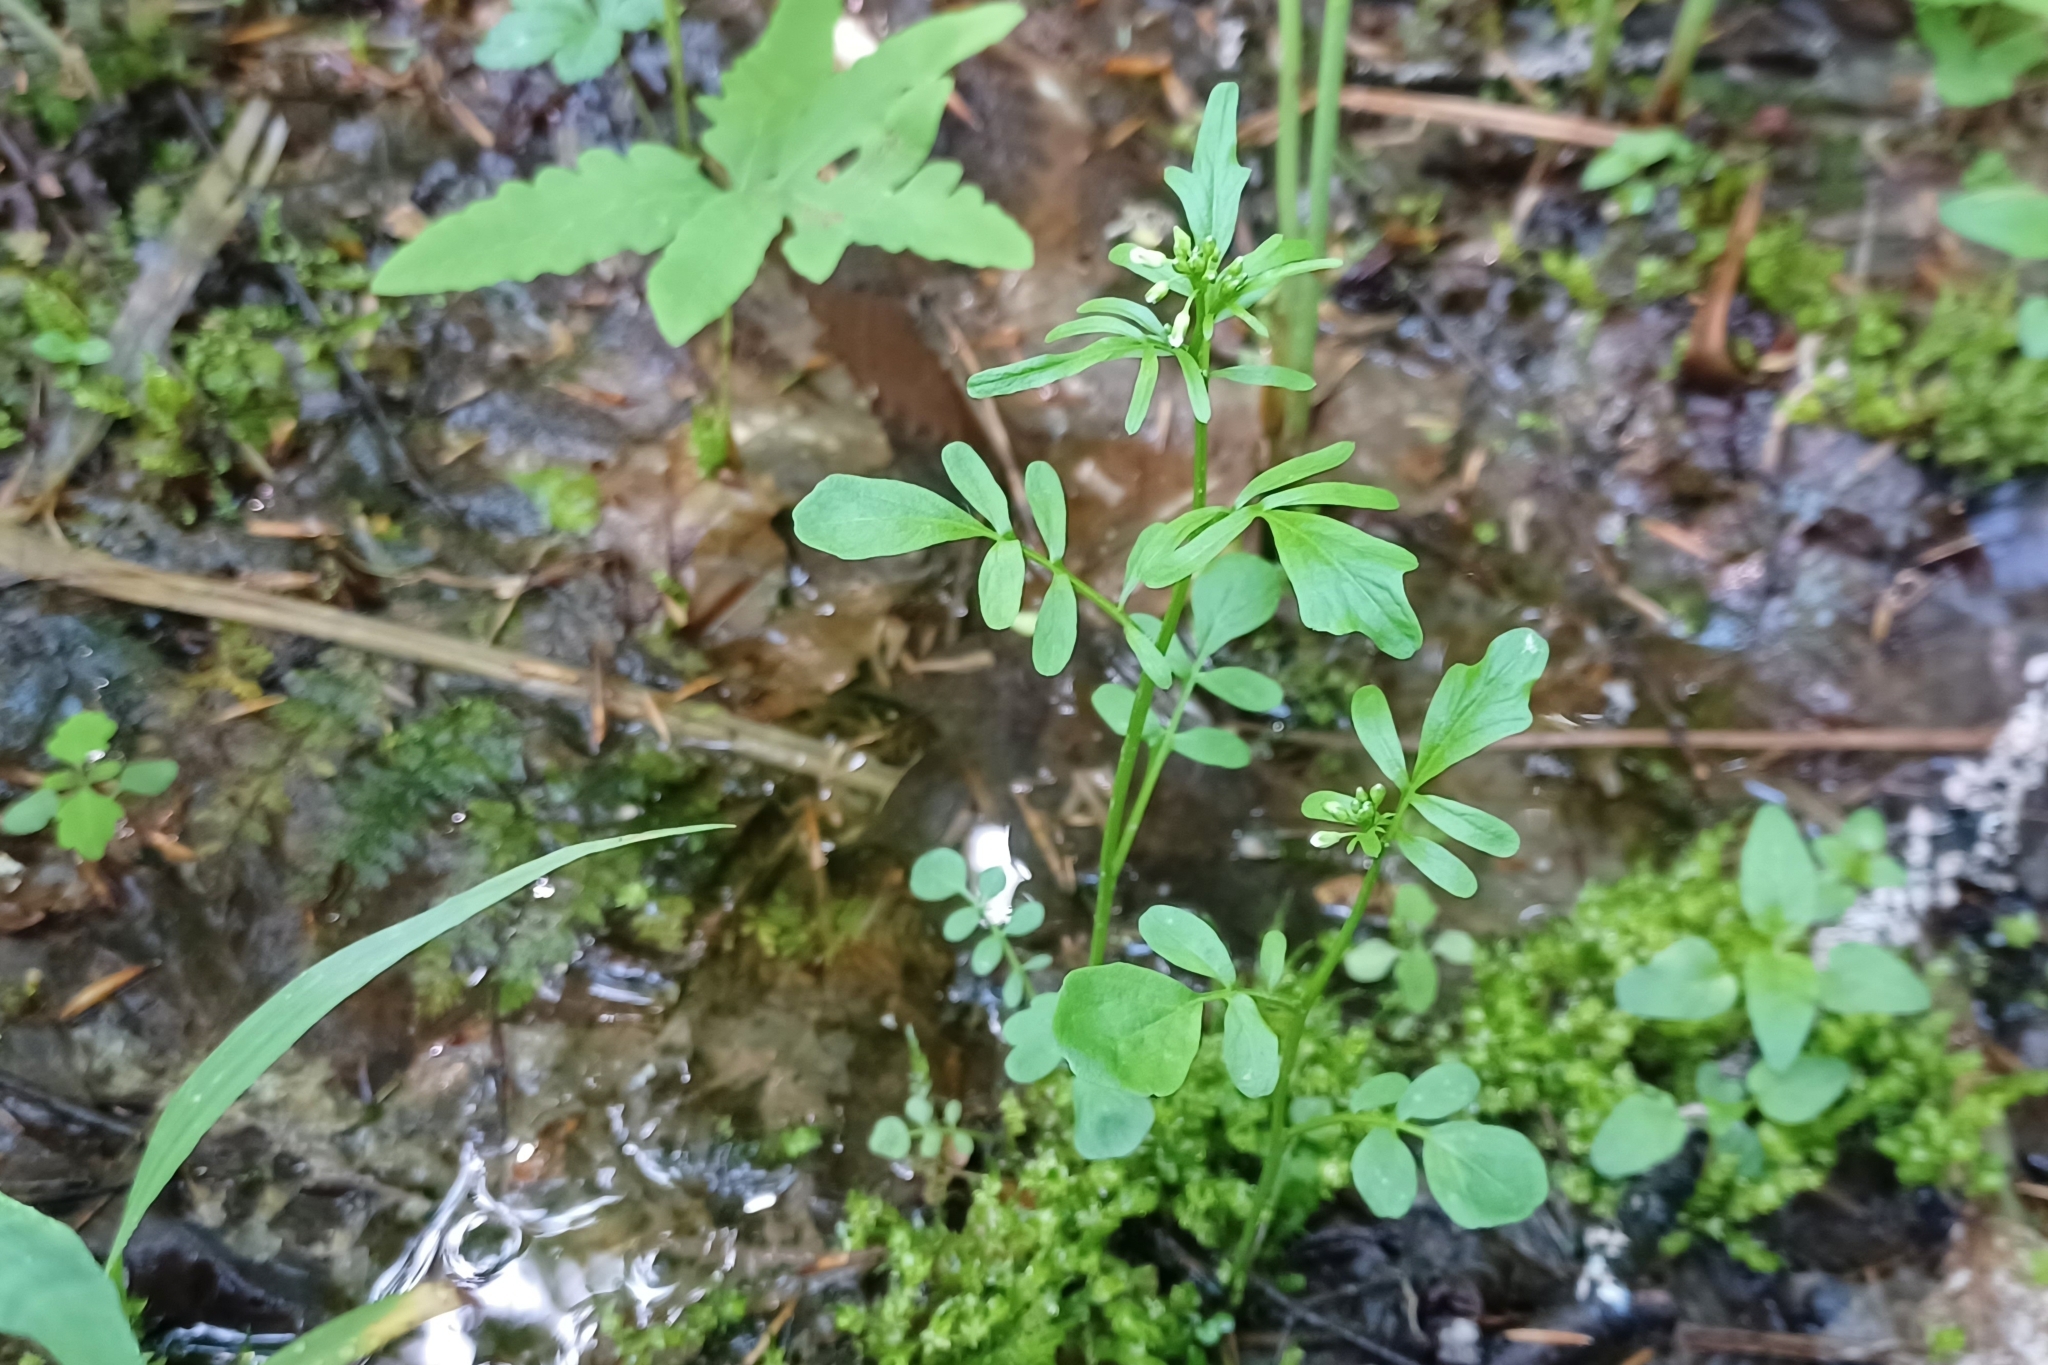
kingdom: Plantae
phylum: Tracheophyta
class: Magnoliopsida
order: Brassicales
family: Brassicaceae
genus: Cardamine
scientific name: Cardamine pensylvanica
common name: Pennsylvania bittercress
